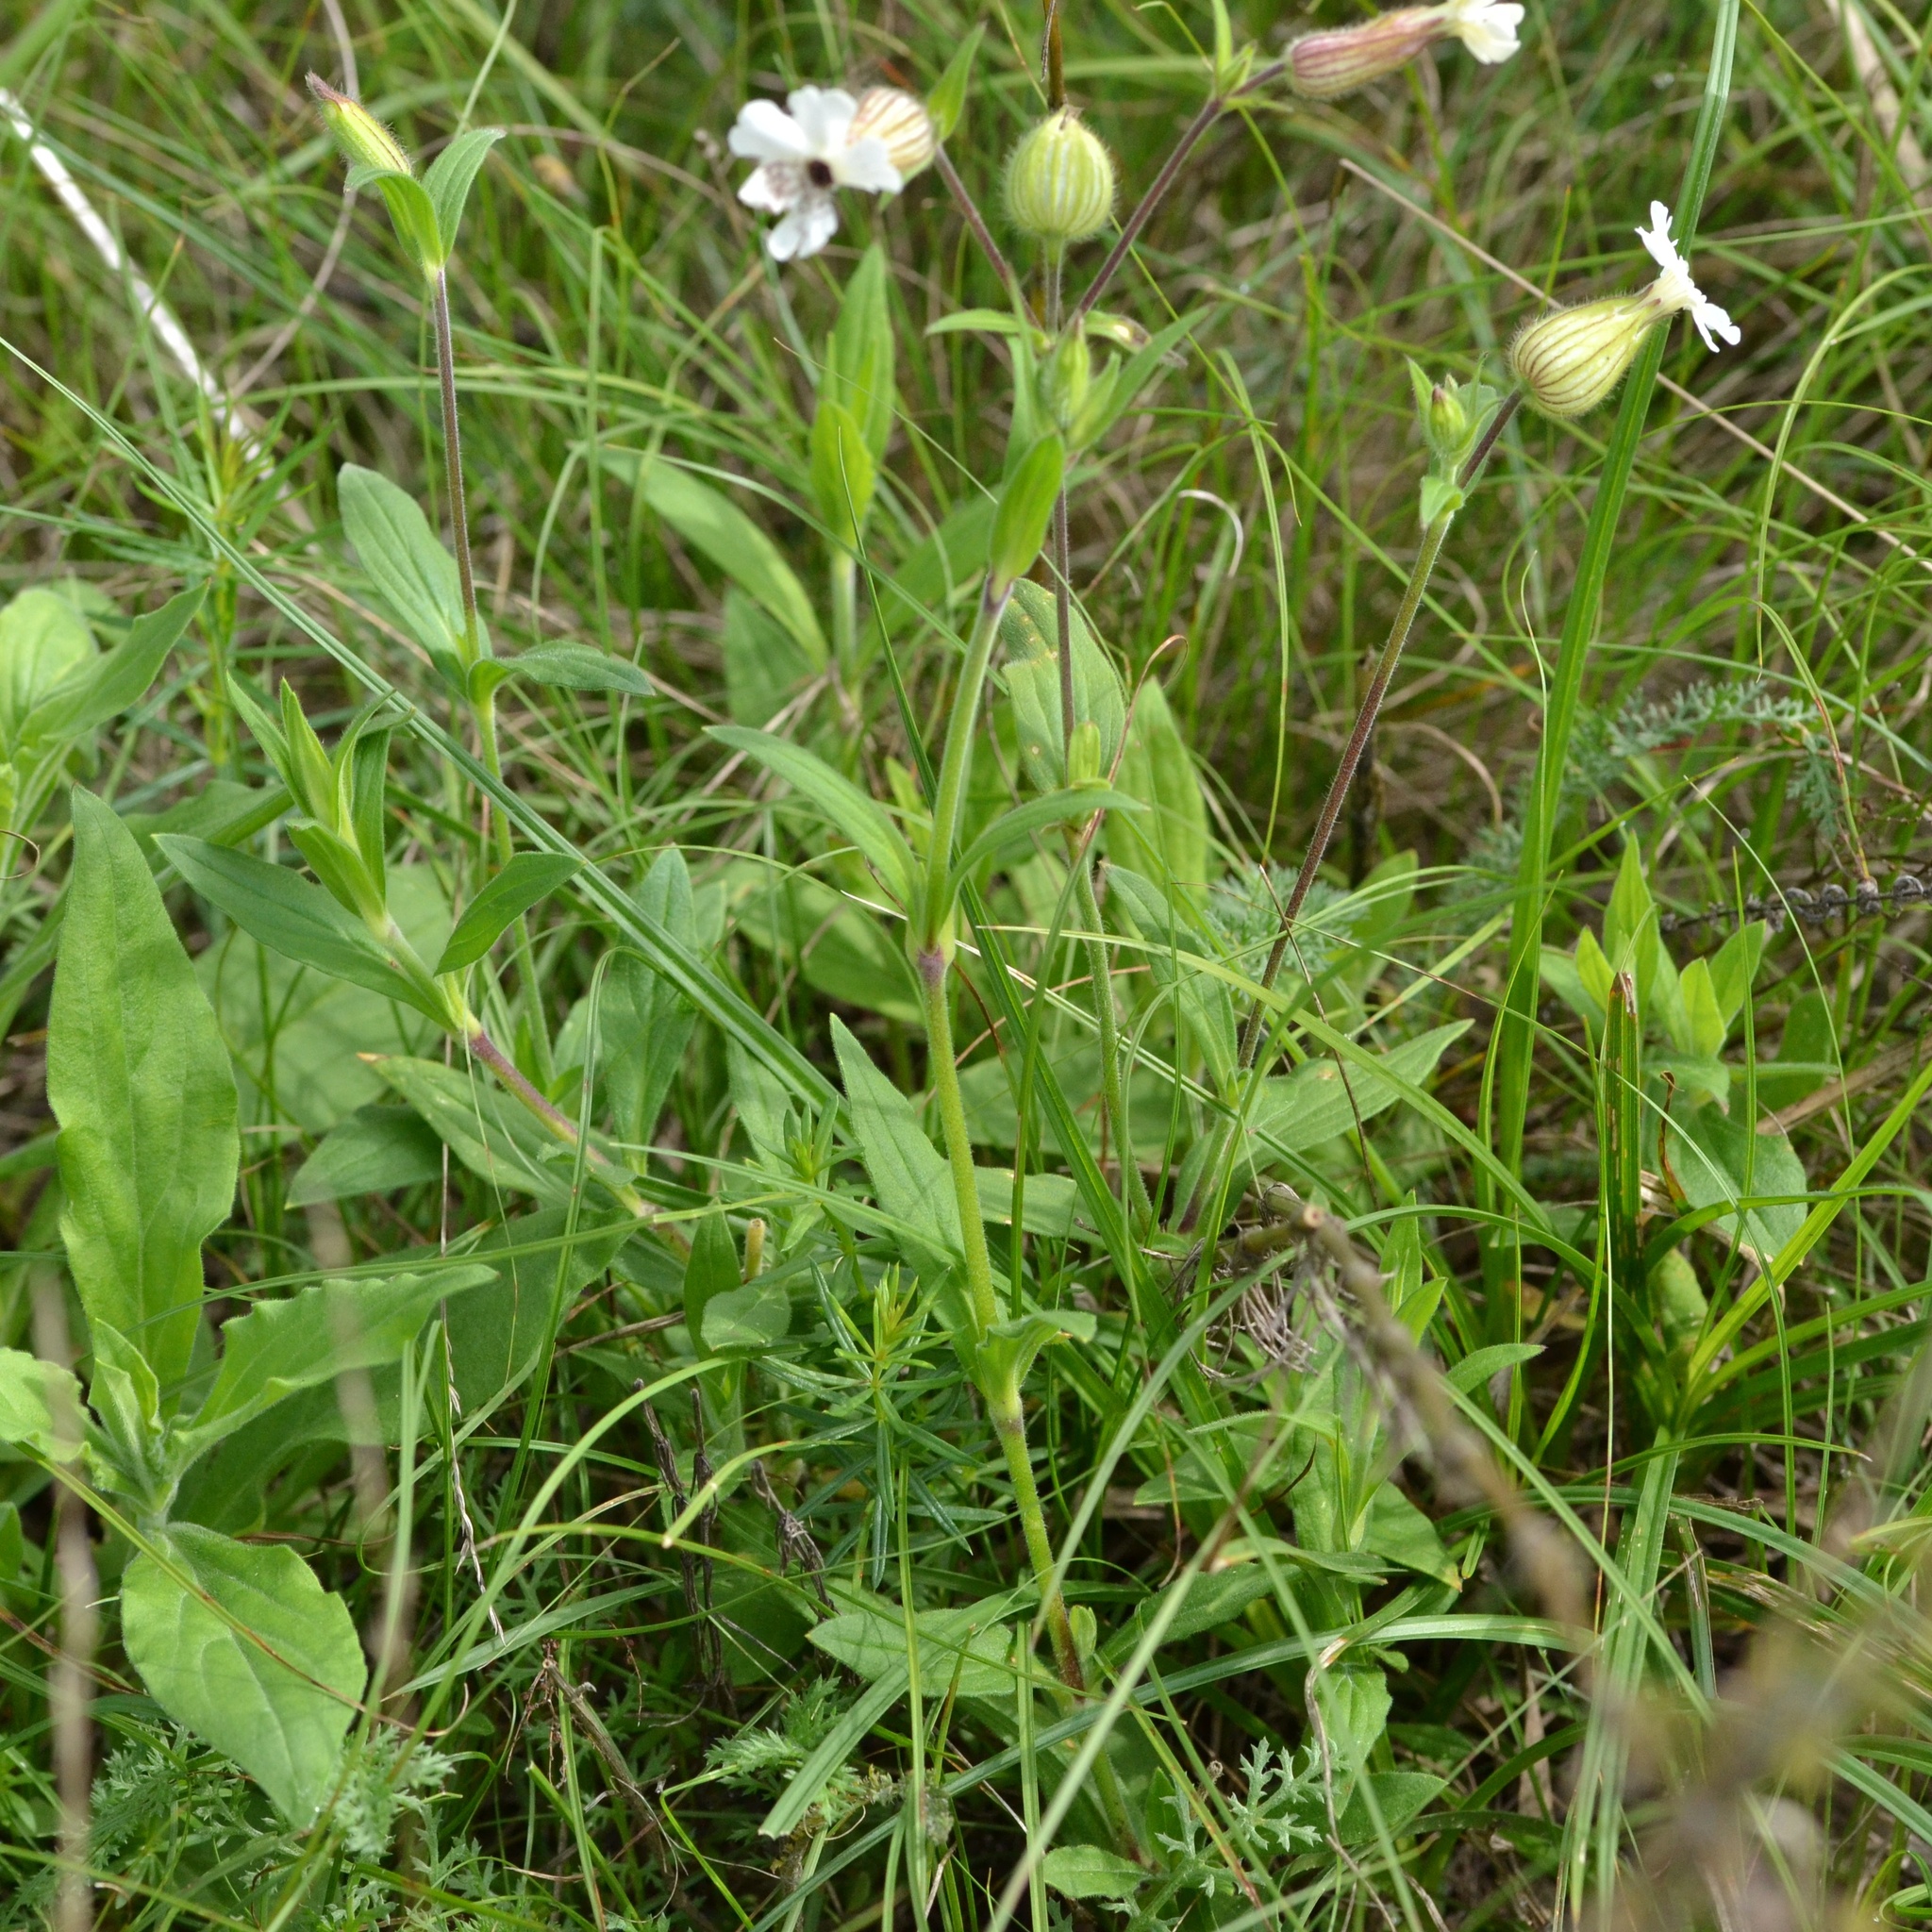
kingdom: Plantae
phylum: Tracheophyta
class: Magnoliopsida
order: Caryophyllales
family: Caryophyllaceae
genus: Silene
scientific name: Silene latifolia
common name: White campion
